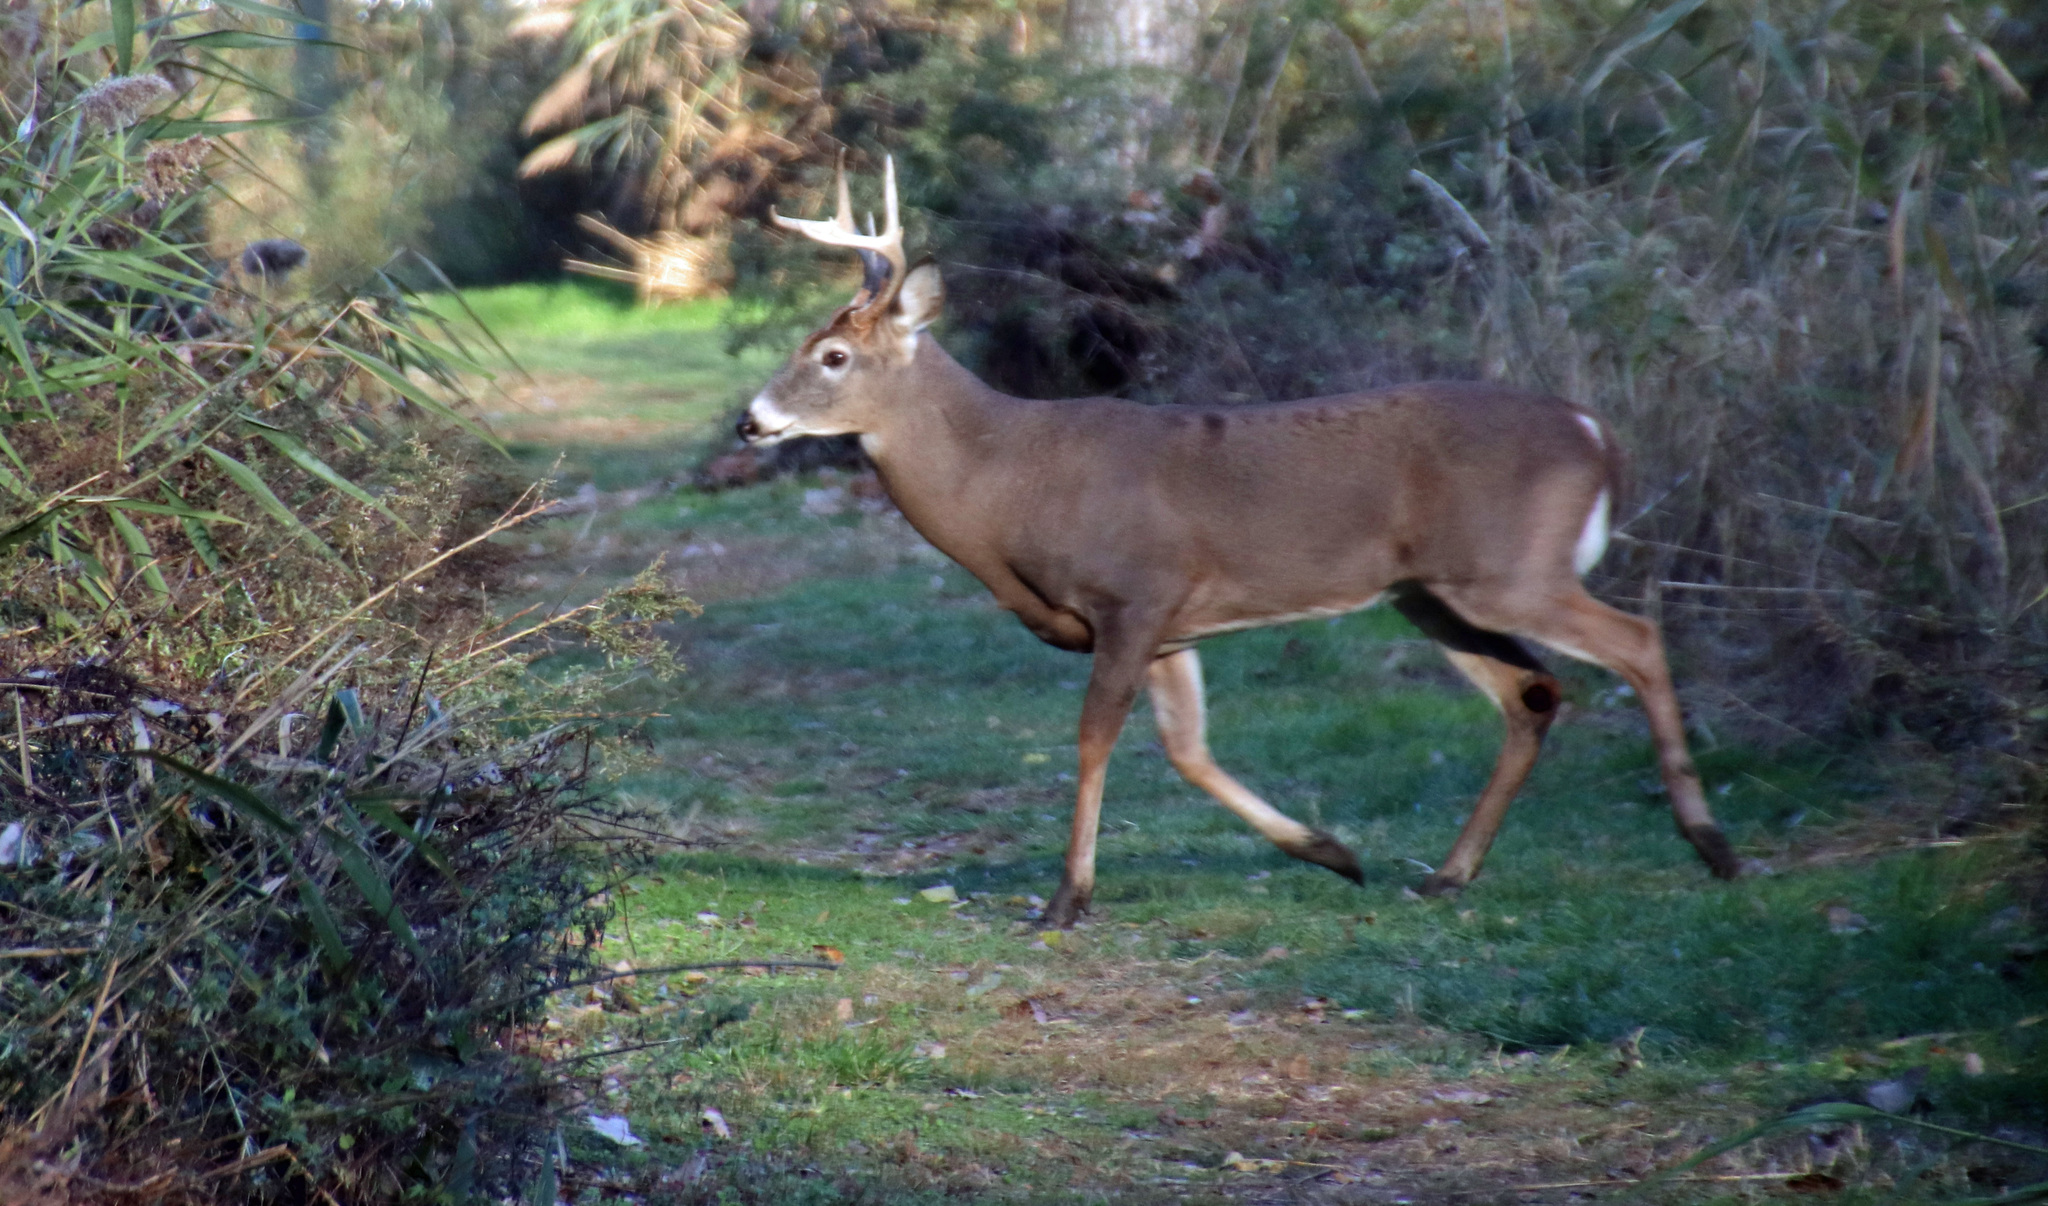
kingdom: Animalia
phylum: Chordata
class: Mammalia
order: Artiodactyla
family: Cervidae
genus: Odocoileus
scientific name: Odocoileus virginianus
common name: White-tailed deer
